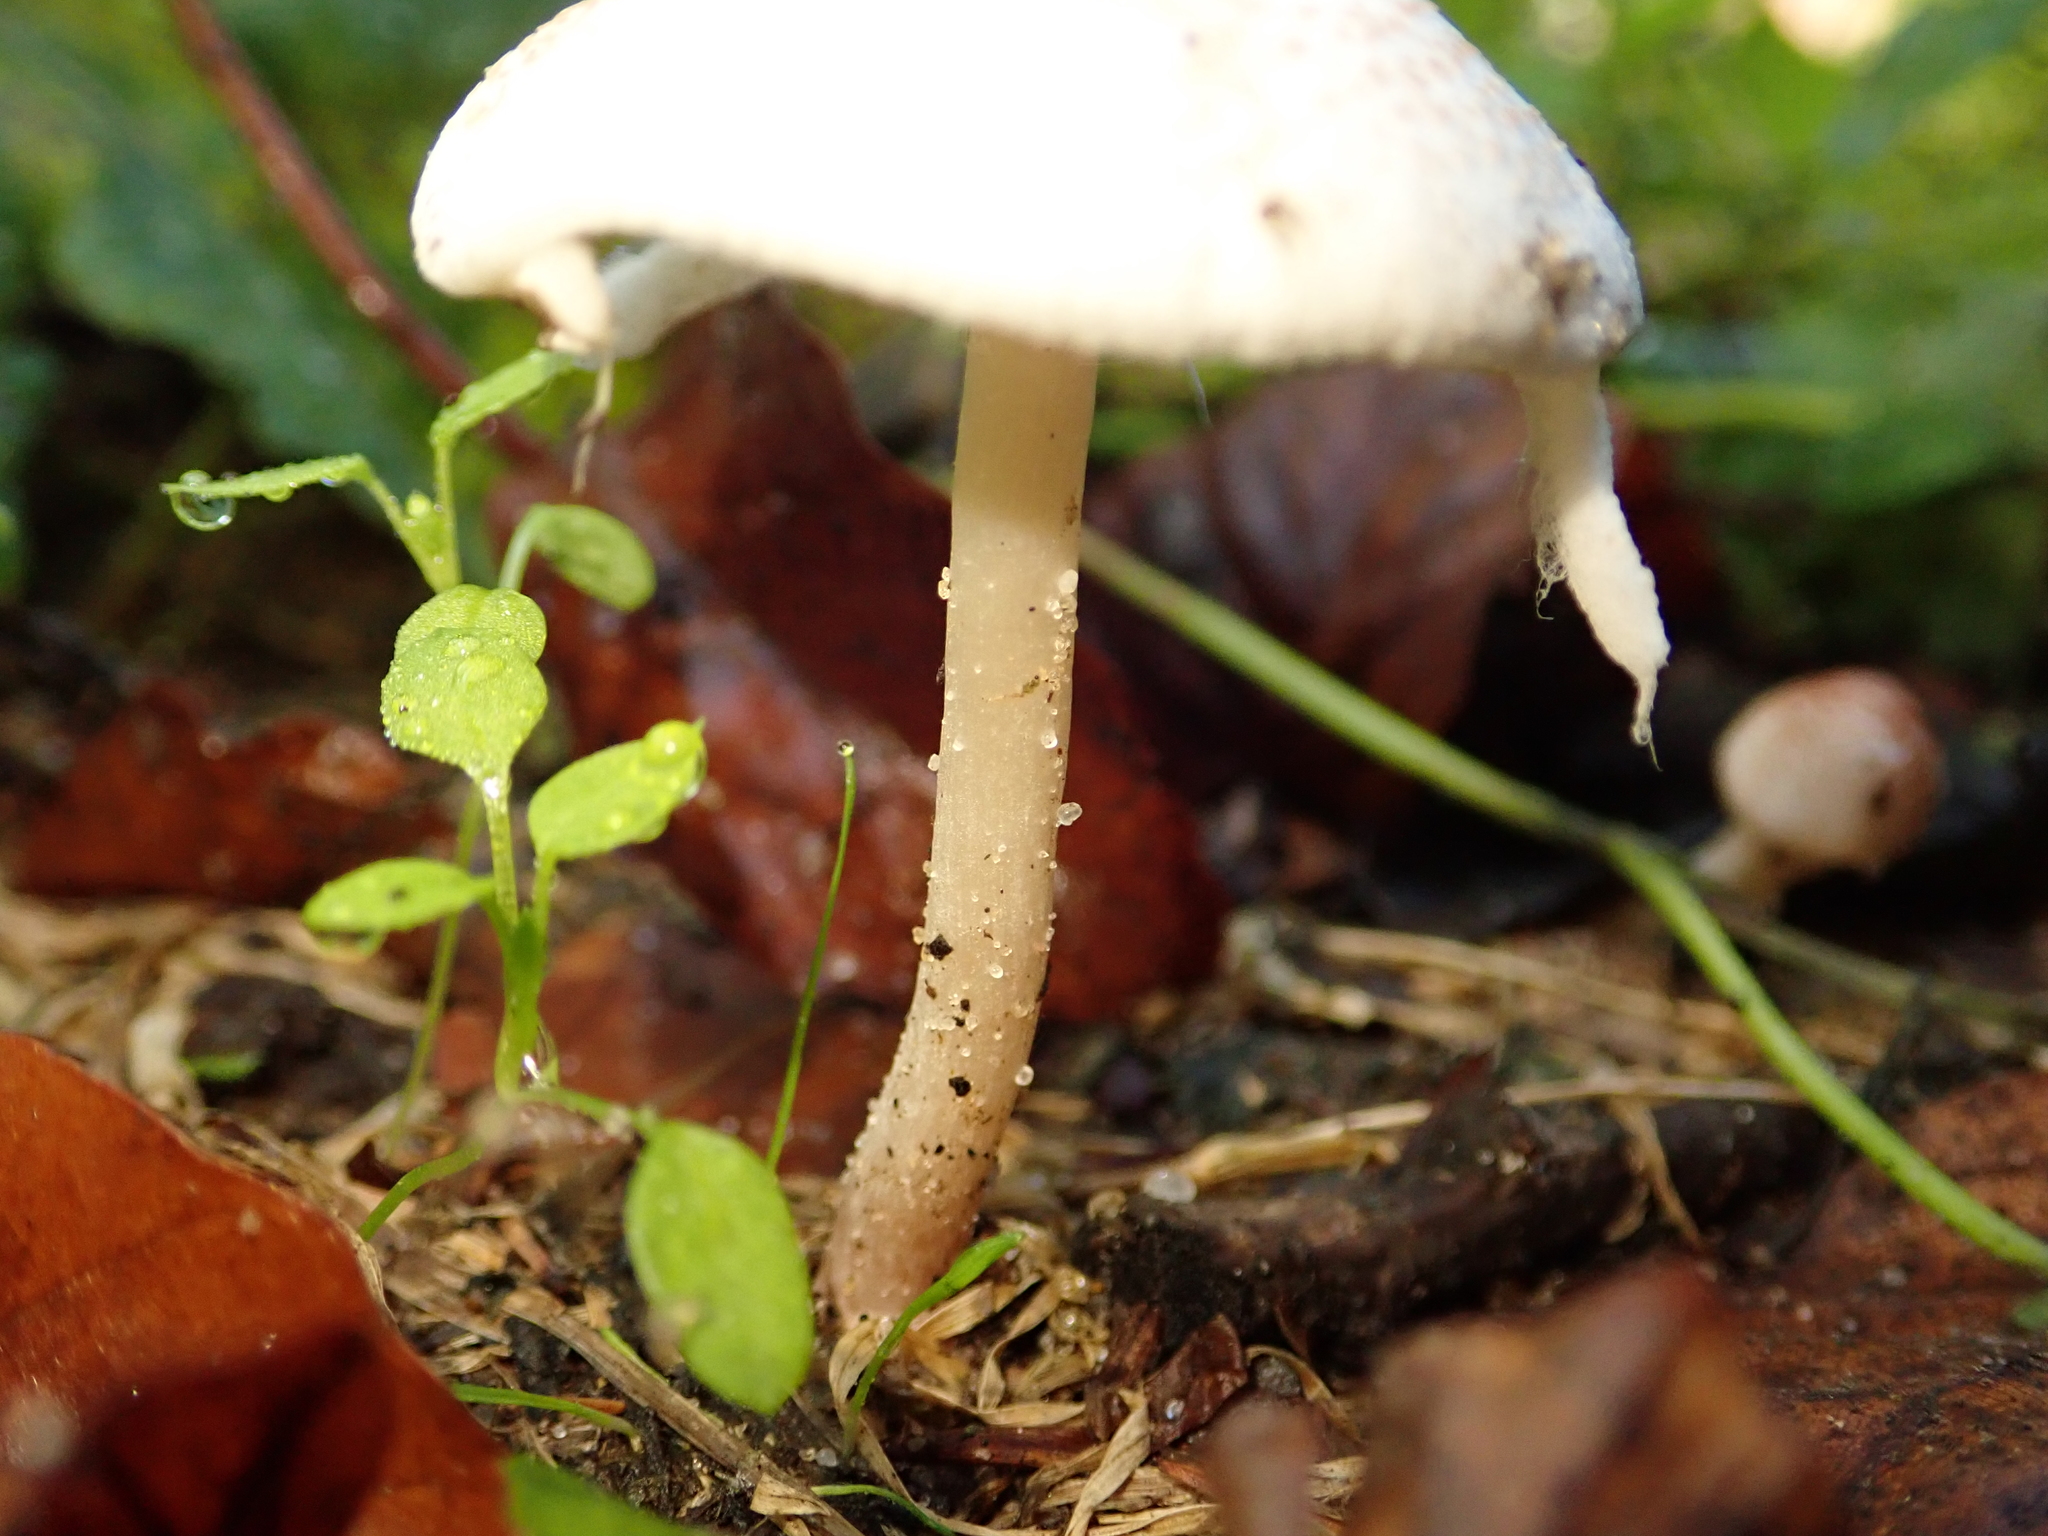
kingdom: Fungi
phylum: Basidiomycota
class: Agaricomycetes
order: Agaricales
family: Agaricaceae
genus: Lepiota
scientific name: Lepiota cristata
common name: Stinking dapperling
